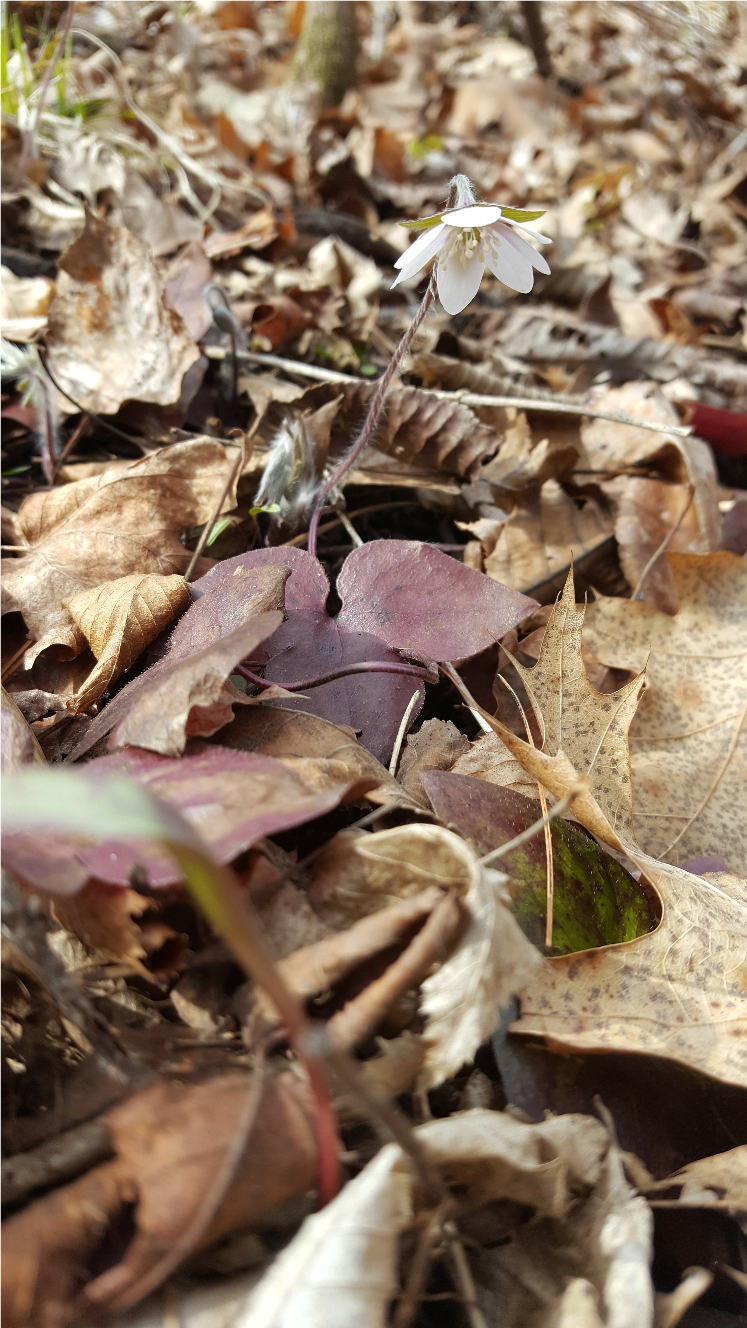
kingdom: Plantae
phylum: Tracheophyta
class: Magnoliopsida
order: Ranunculales
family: Ranunculaceae
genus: Hepatica
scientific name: Hepatica acutiloba
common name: Sharp-lobed hepatica
